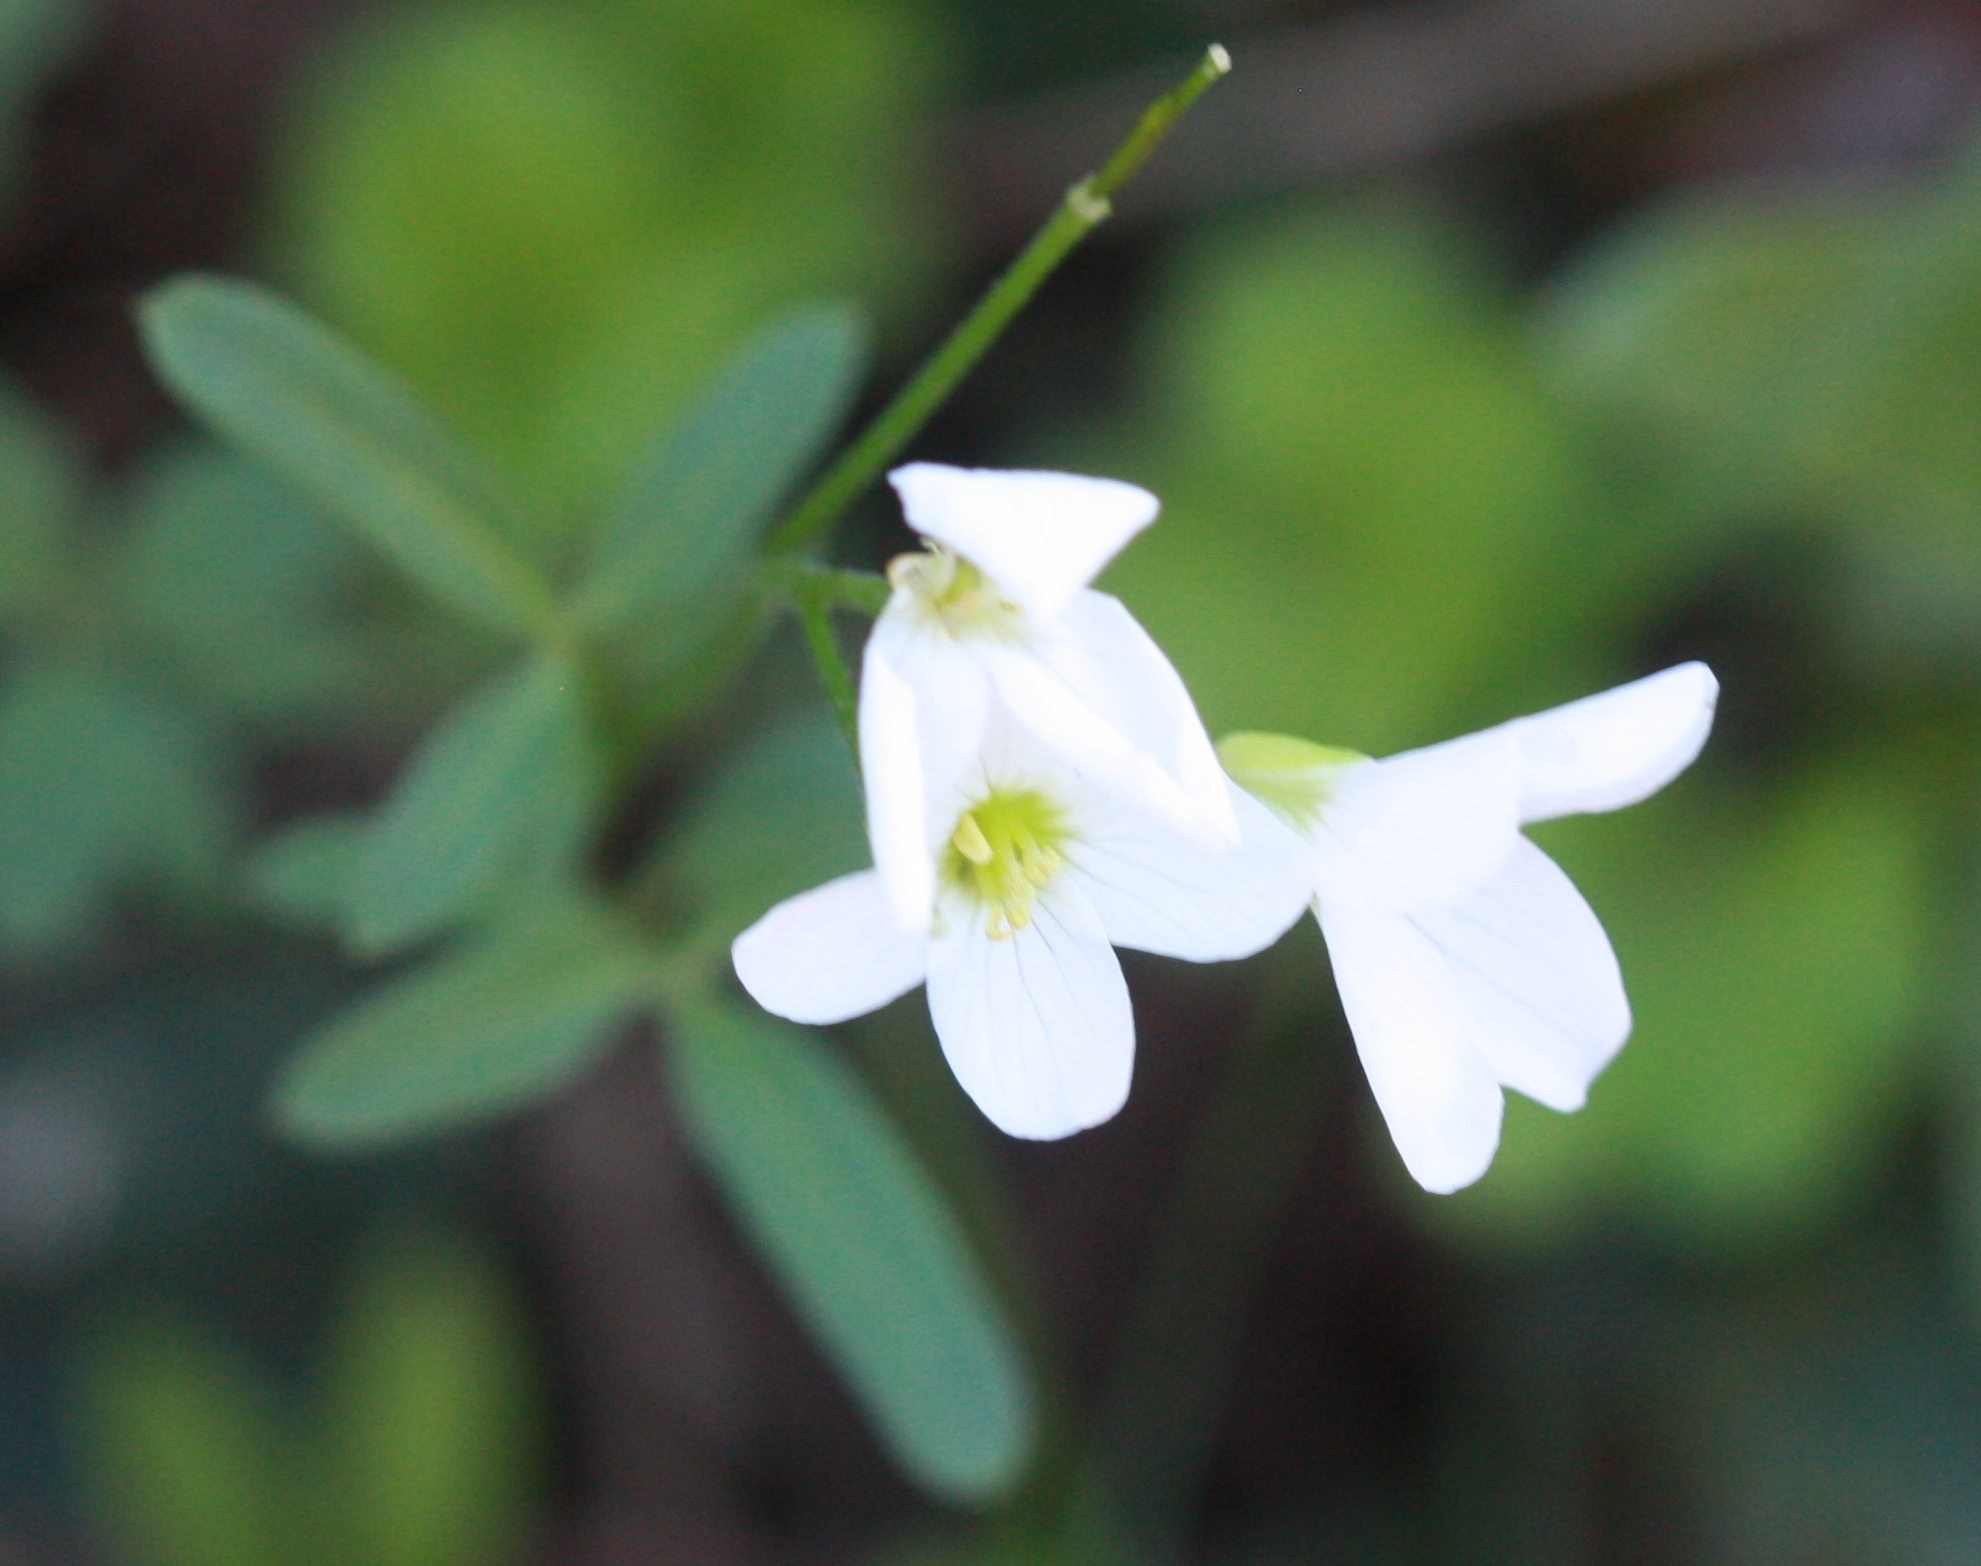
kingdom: Plantae
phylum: Tracheophyta
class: Magnoliopsida
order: Brassicales
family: Brassicaceae
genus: Cardamine
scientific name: Cardamine californica
